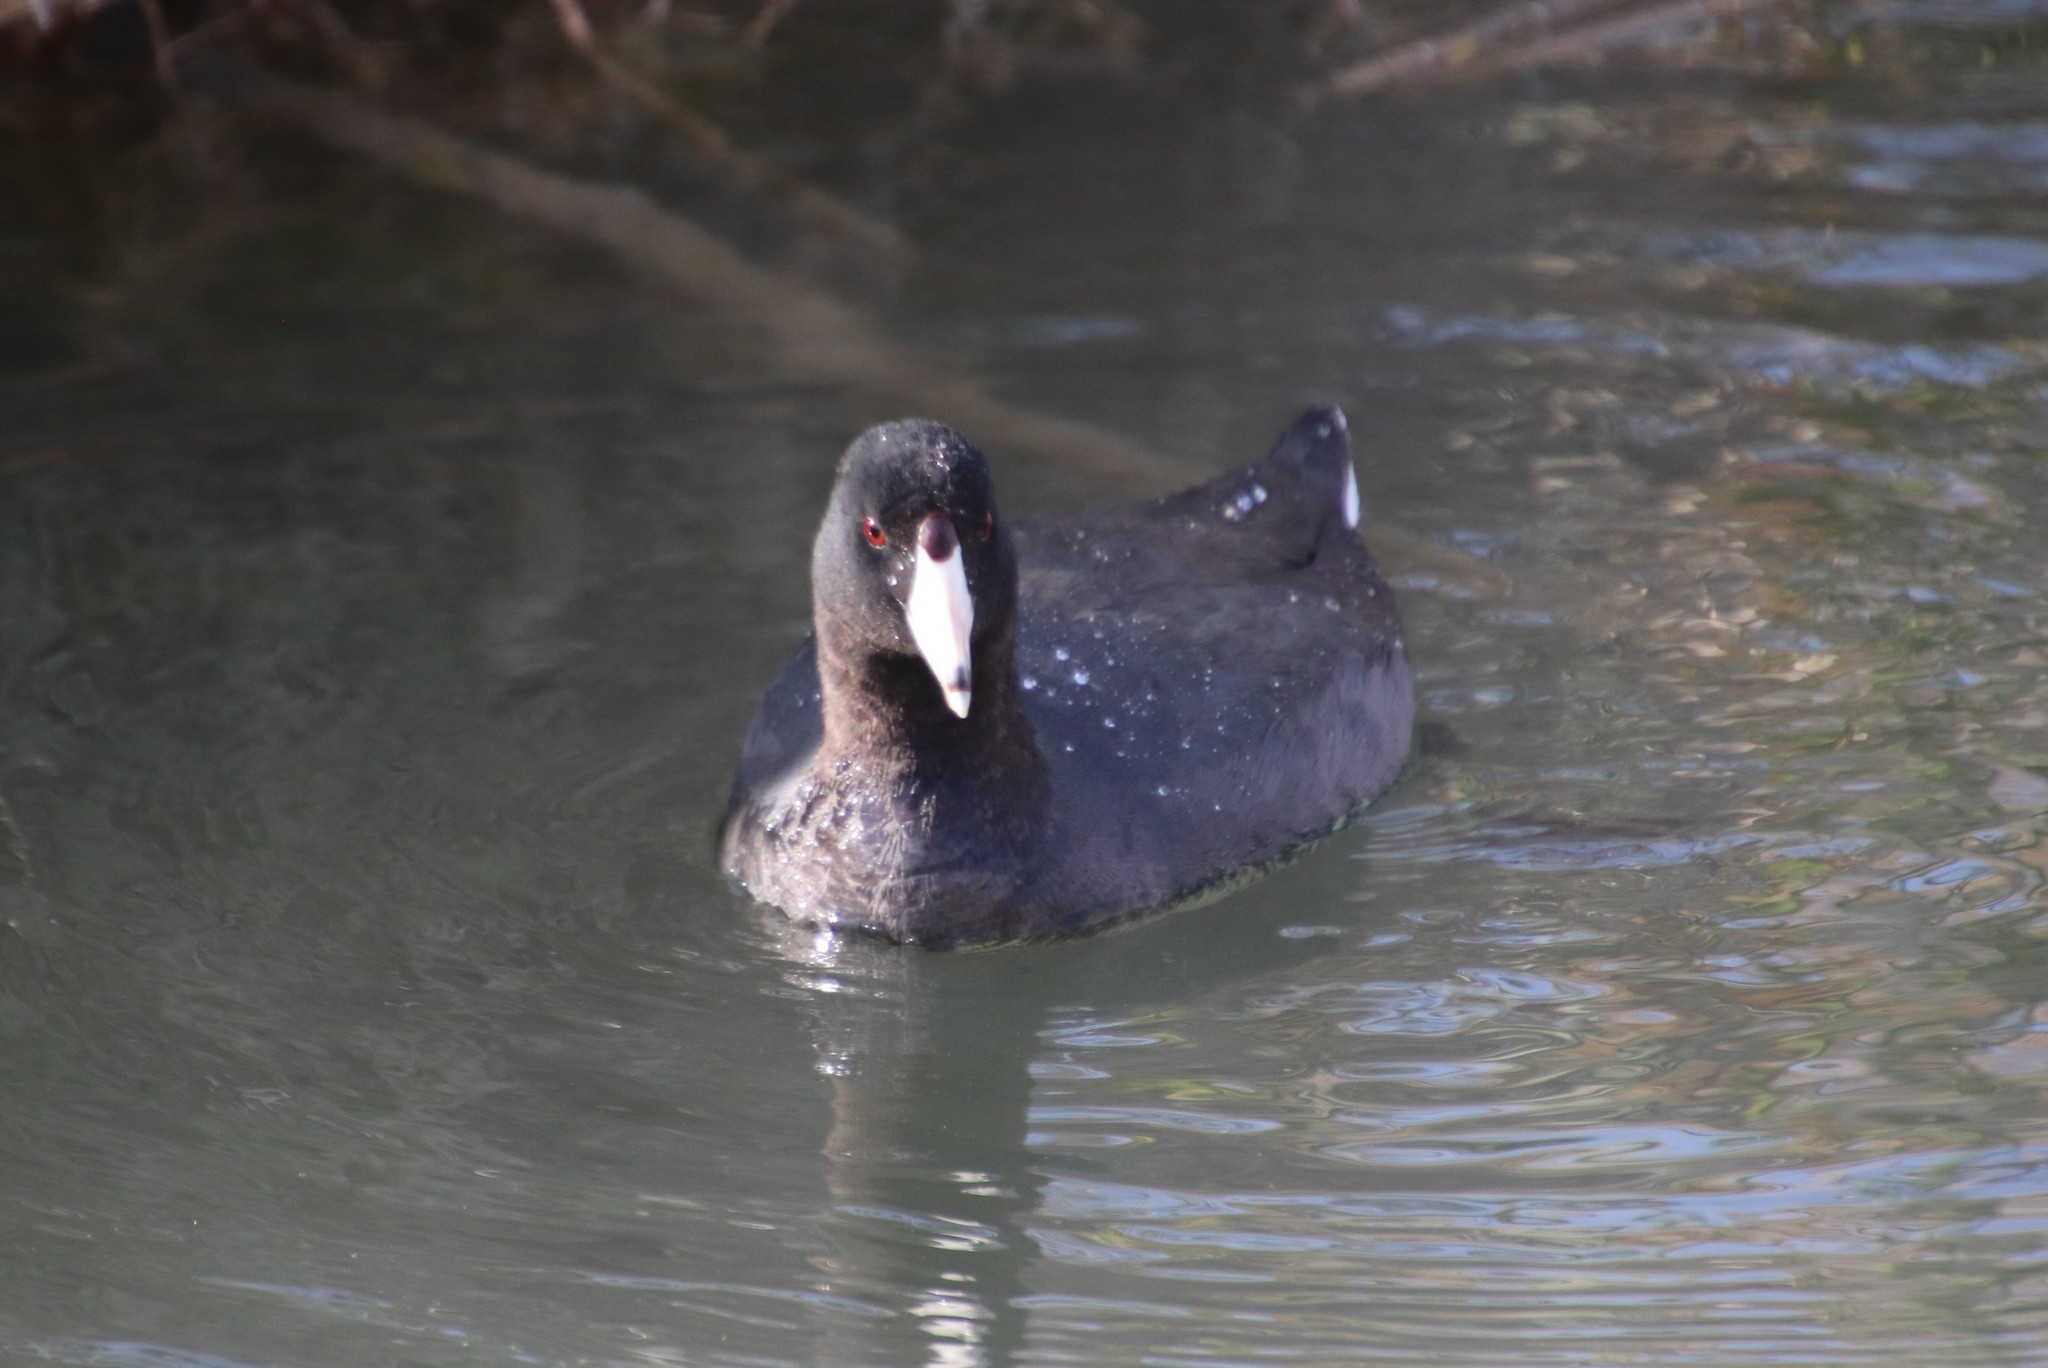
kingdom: Animalia
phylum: Chordata
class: Aves
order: Gruiformes
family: Rallidae
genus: Fulica
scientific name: Fulica americana
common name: American coot
